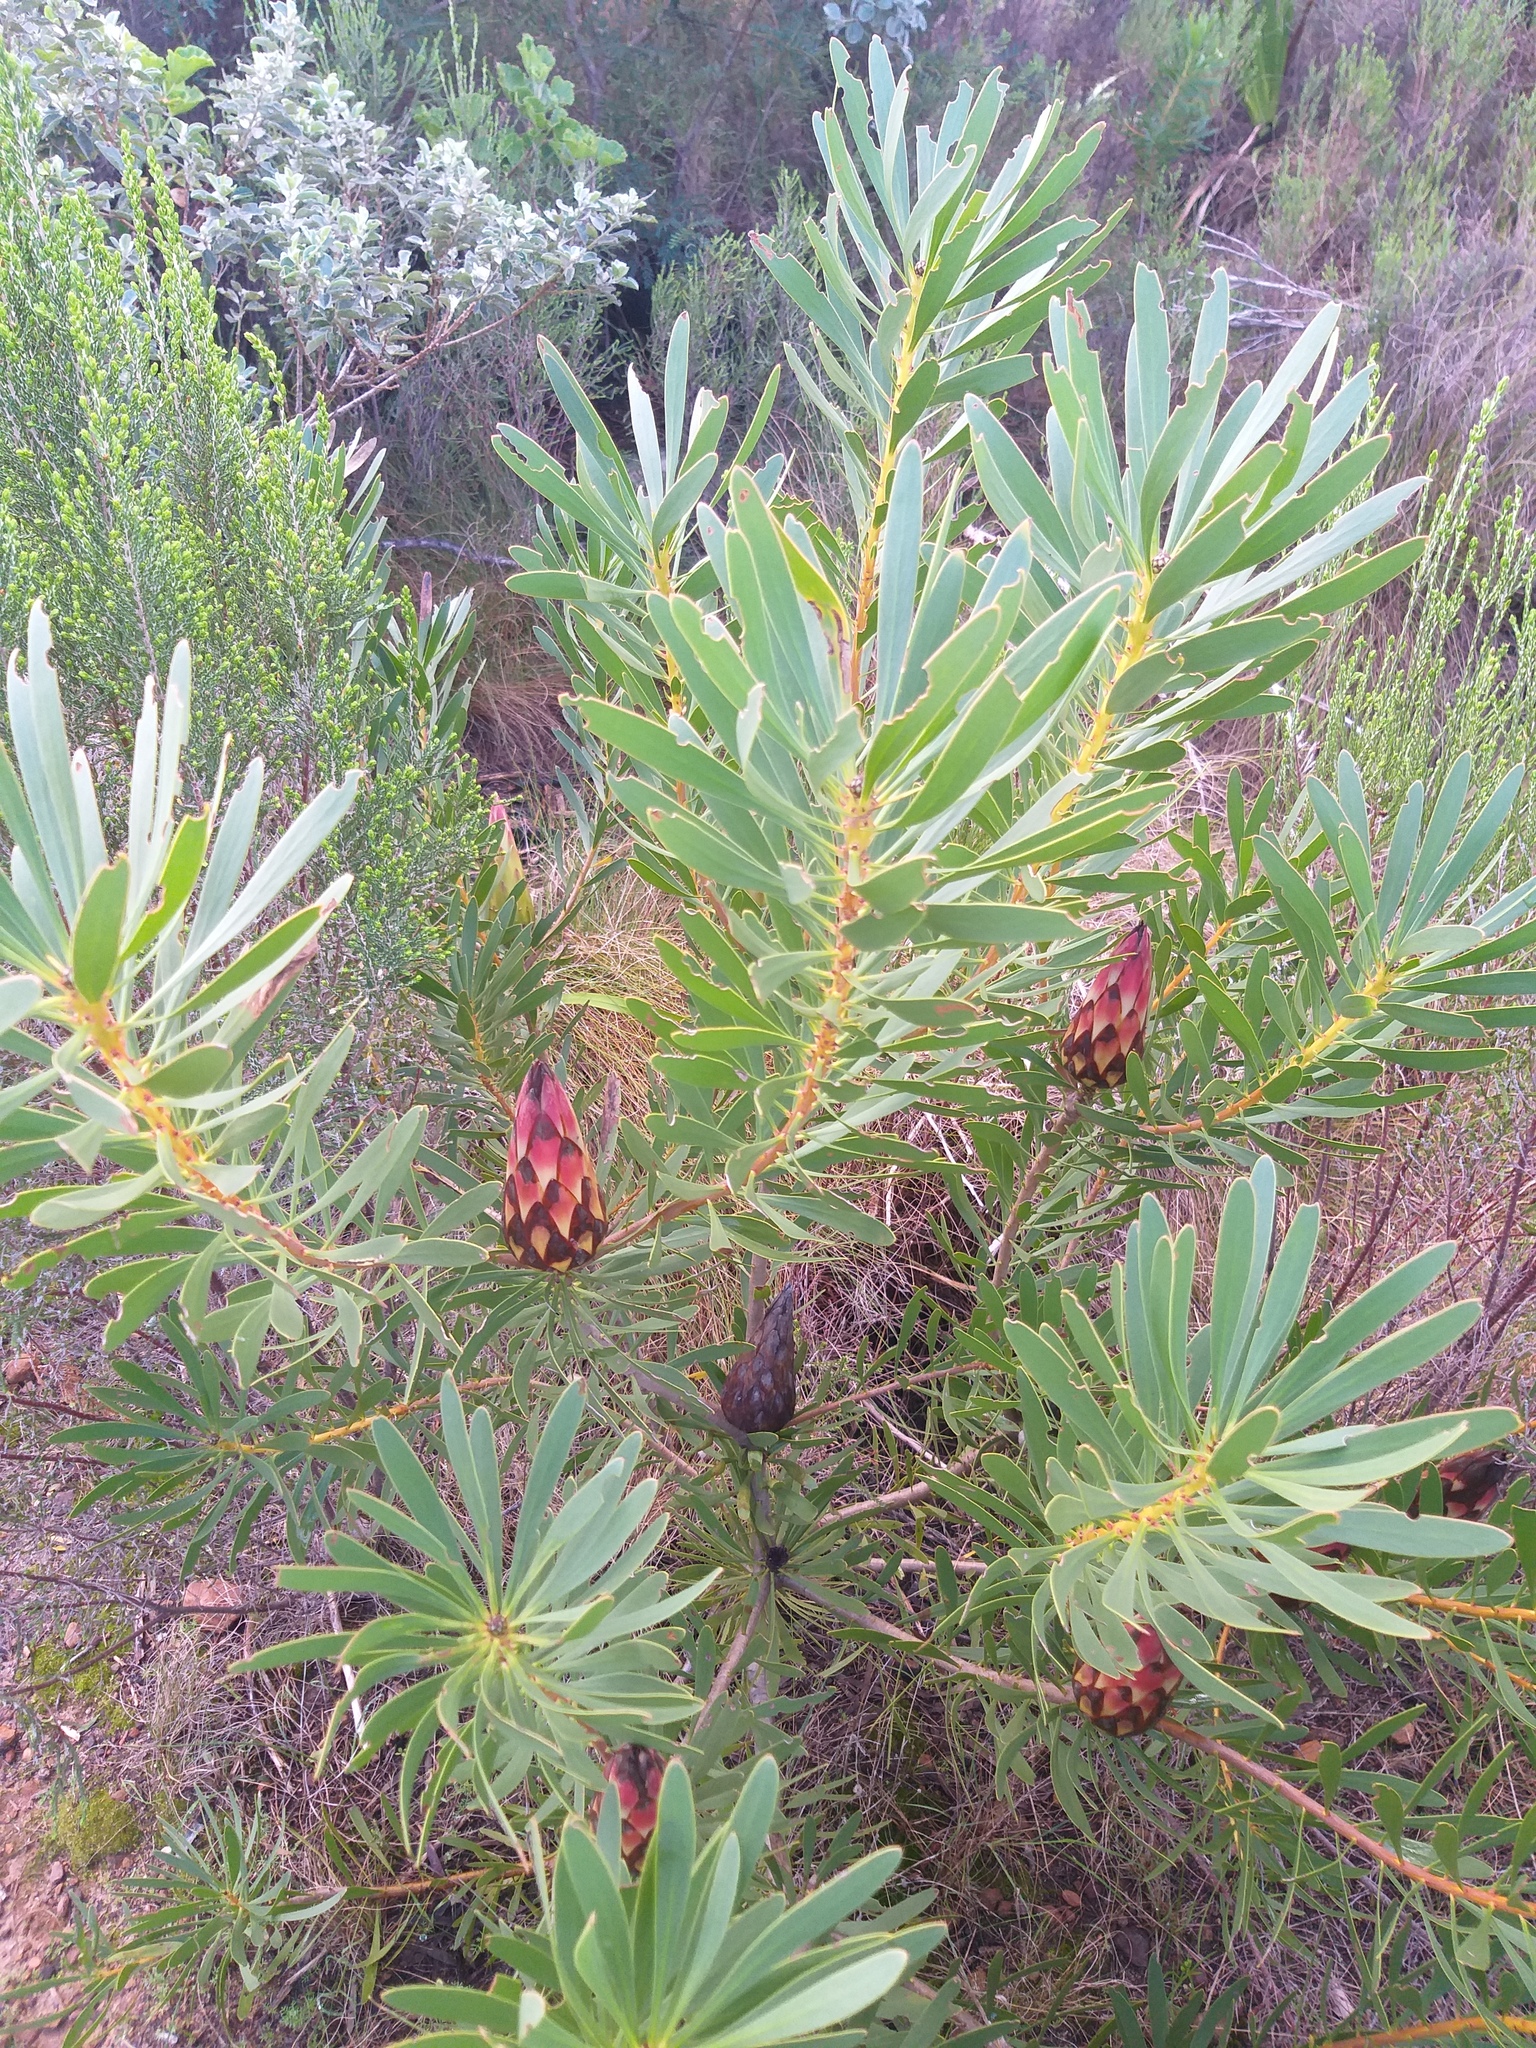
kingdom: Plantae
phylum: Tracheophyta
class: Magnoliopsida
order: Proteales
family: Proteaceae
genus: Protea
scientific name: Protea repens
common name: Sugarbush
